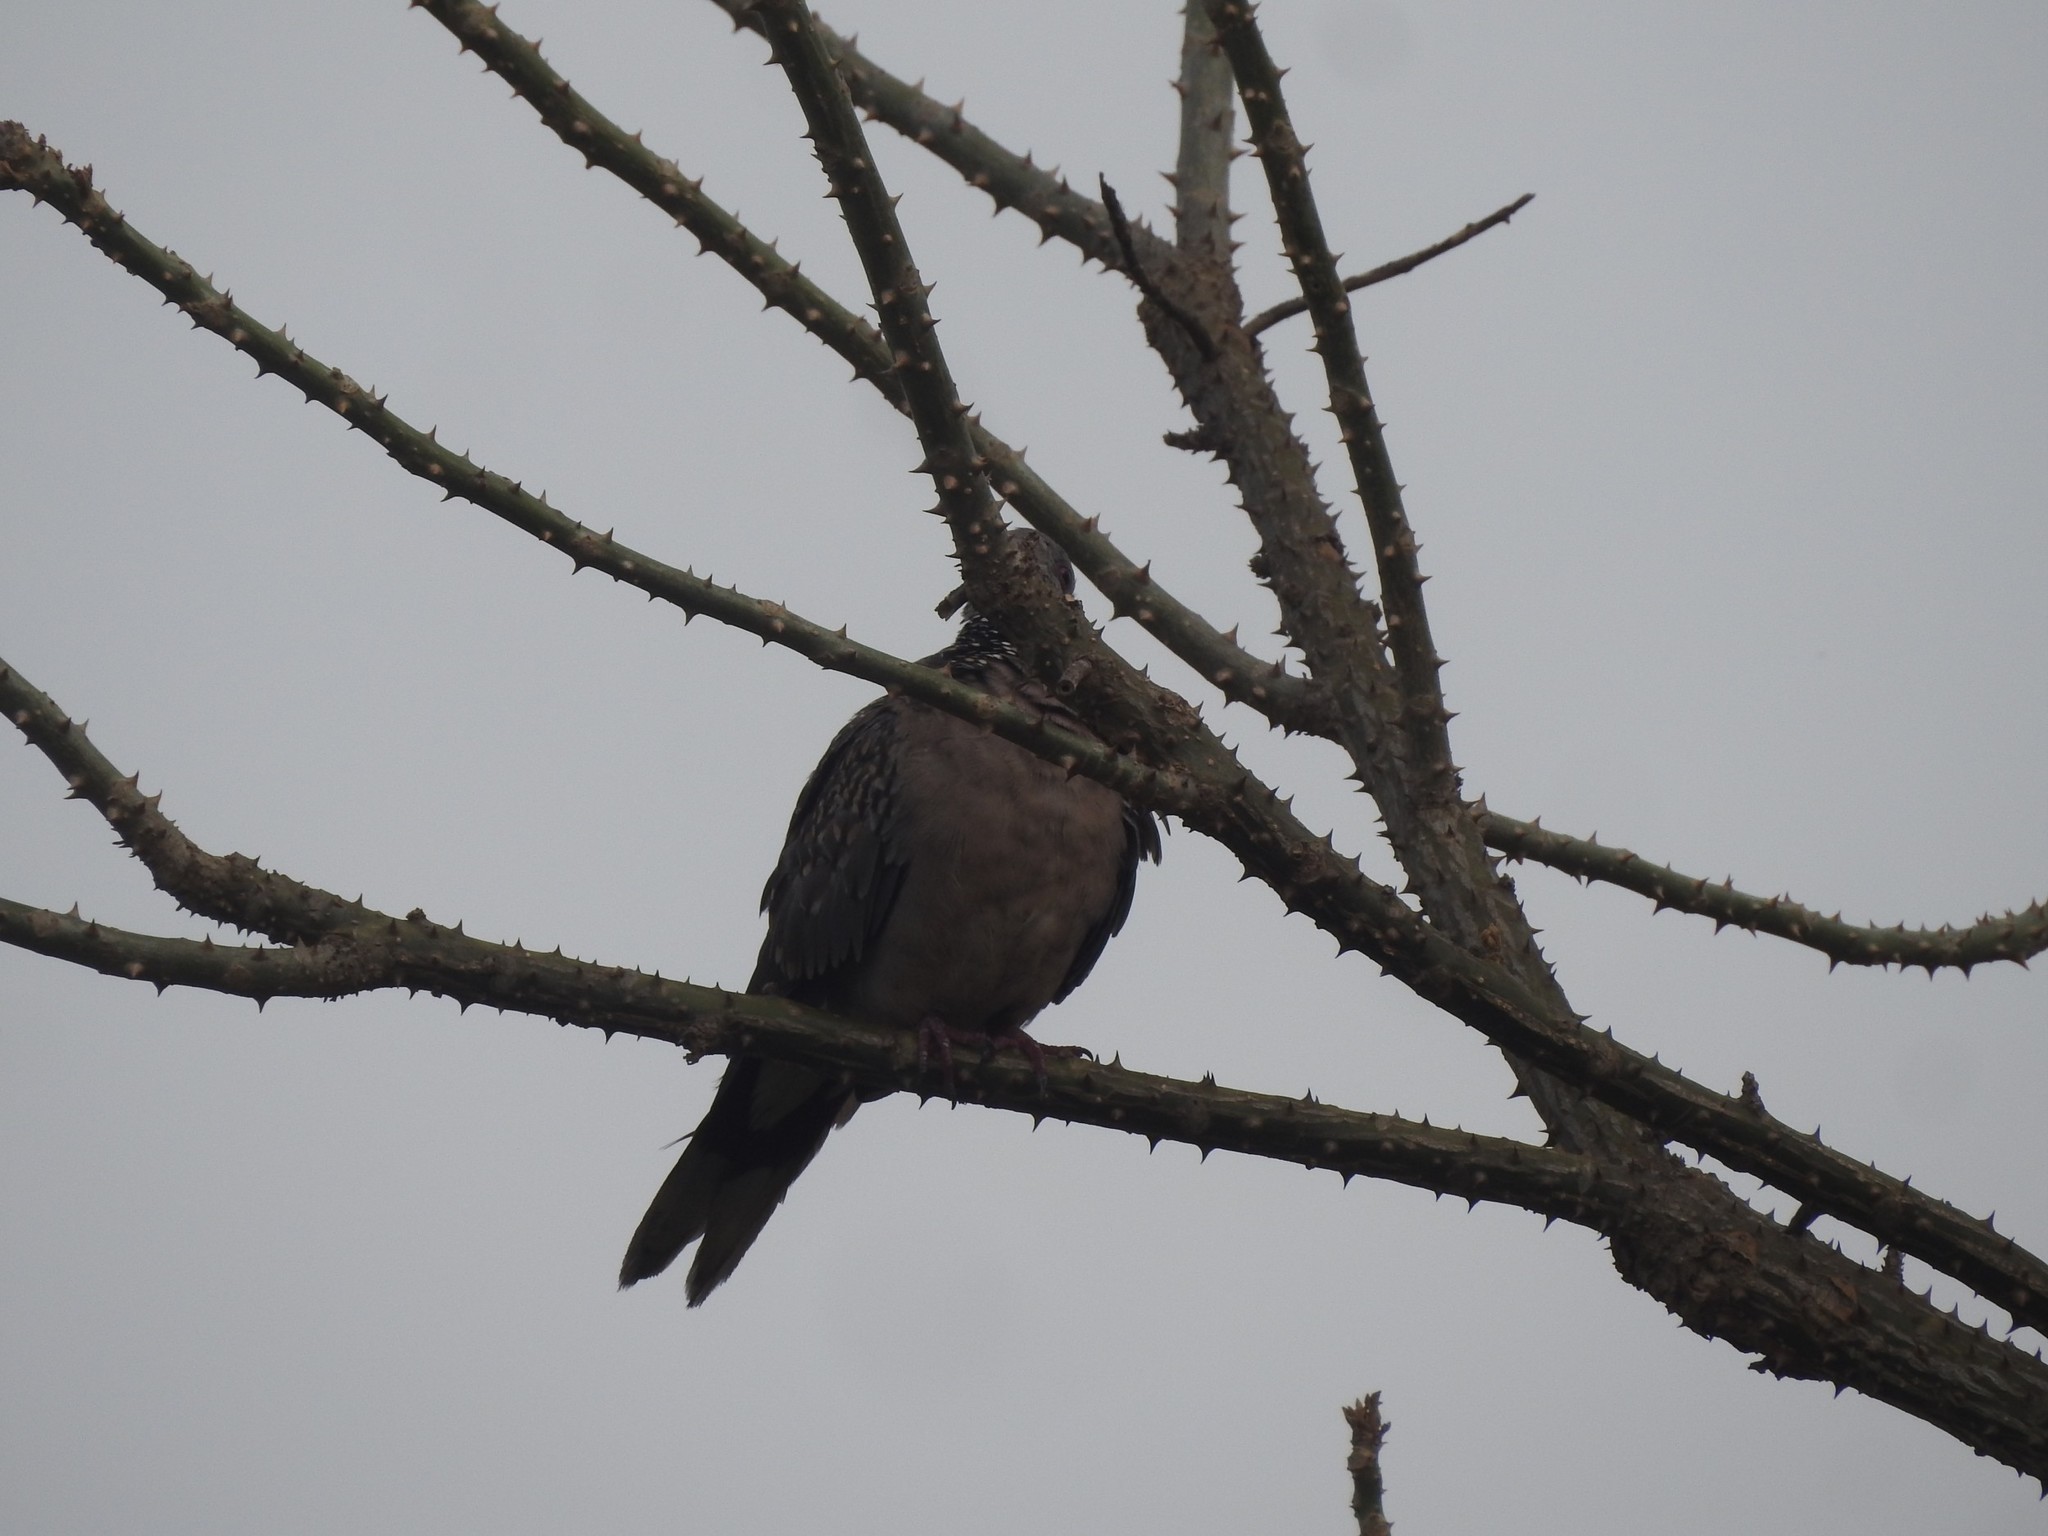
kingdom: Animalia
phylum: Chordata
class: Aves
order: Columbiformes
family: Columbidae
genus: Spilopelia
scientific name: Spilopelia chinensis
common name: Spotted dove
